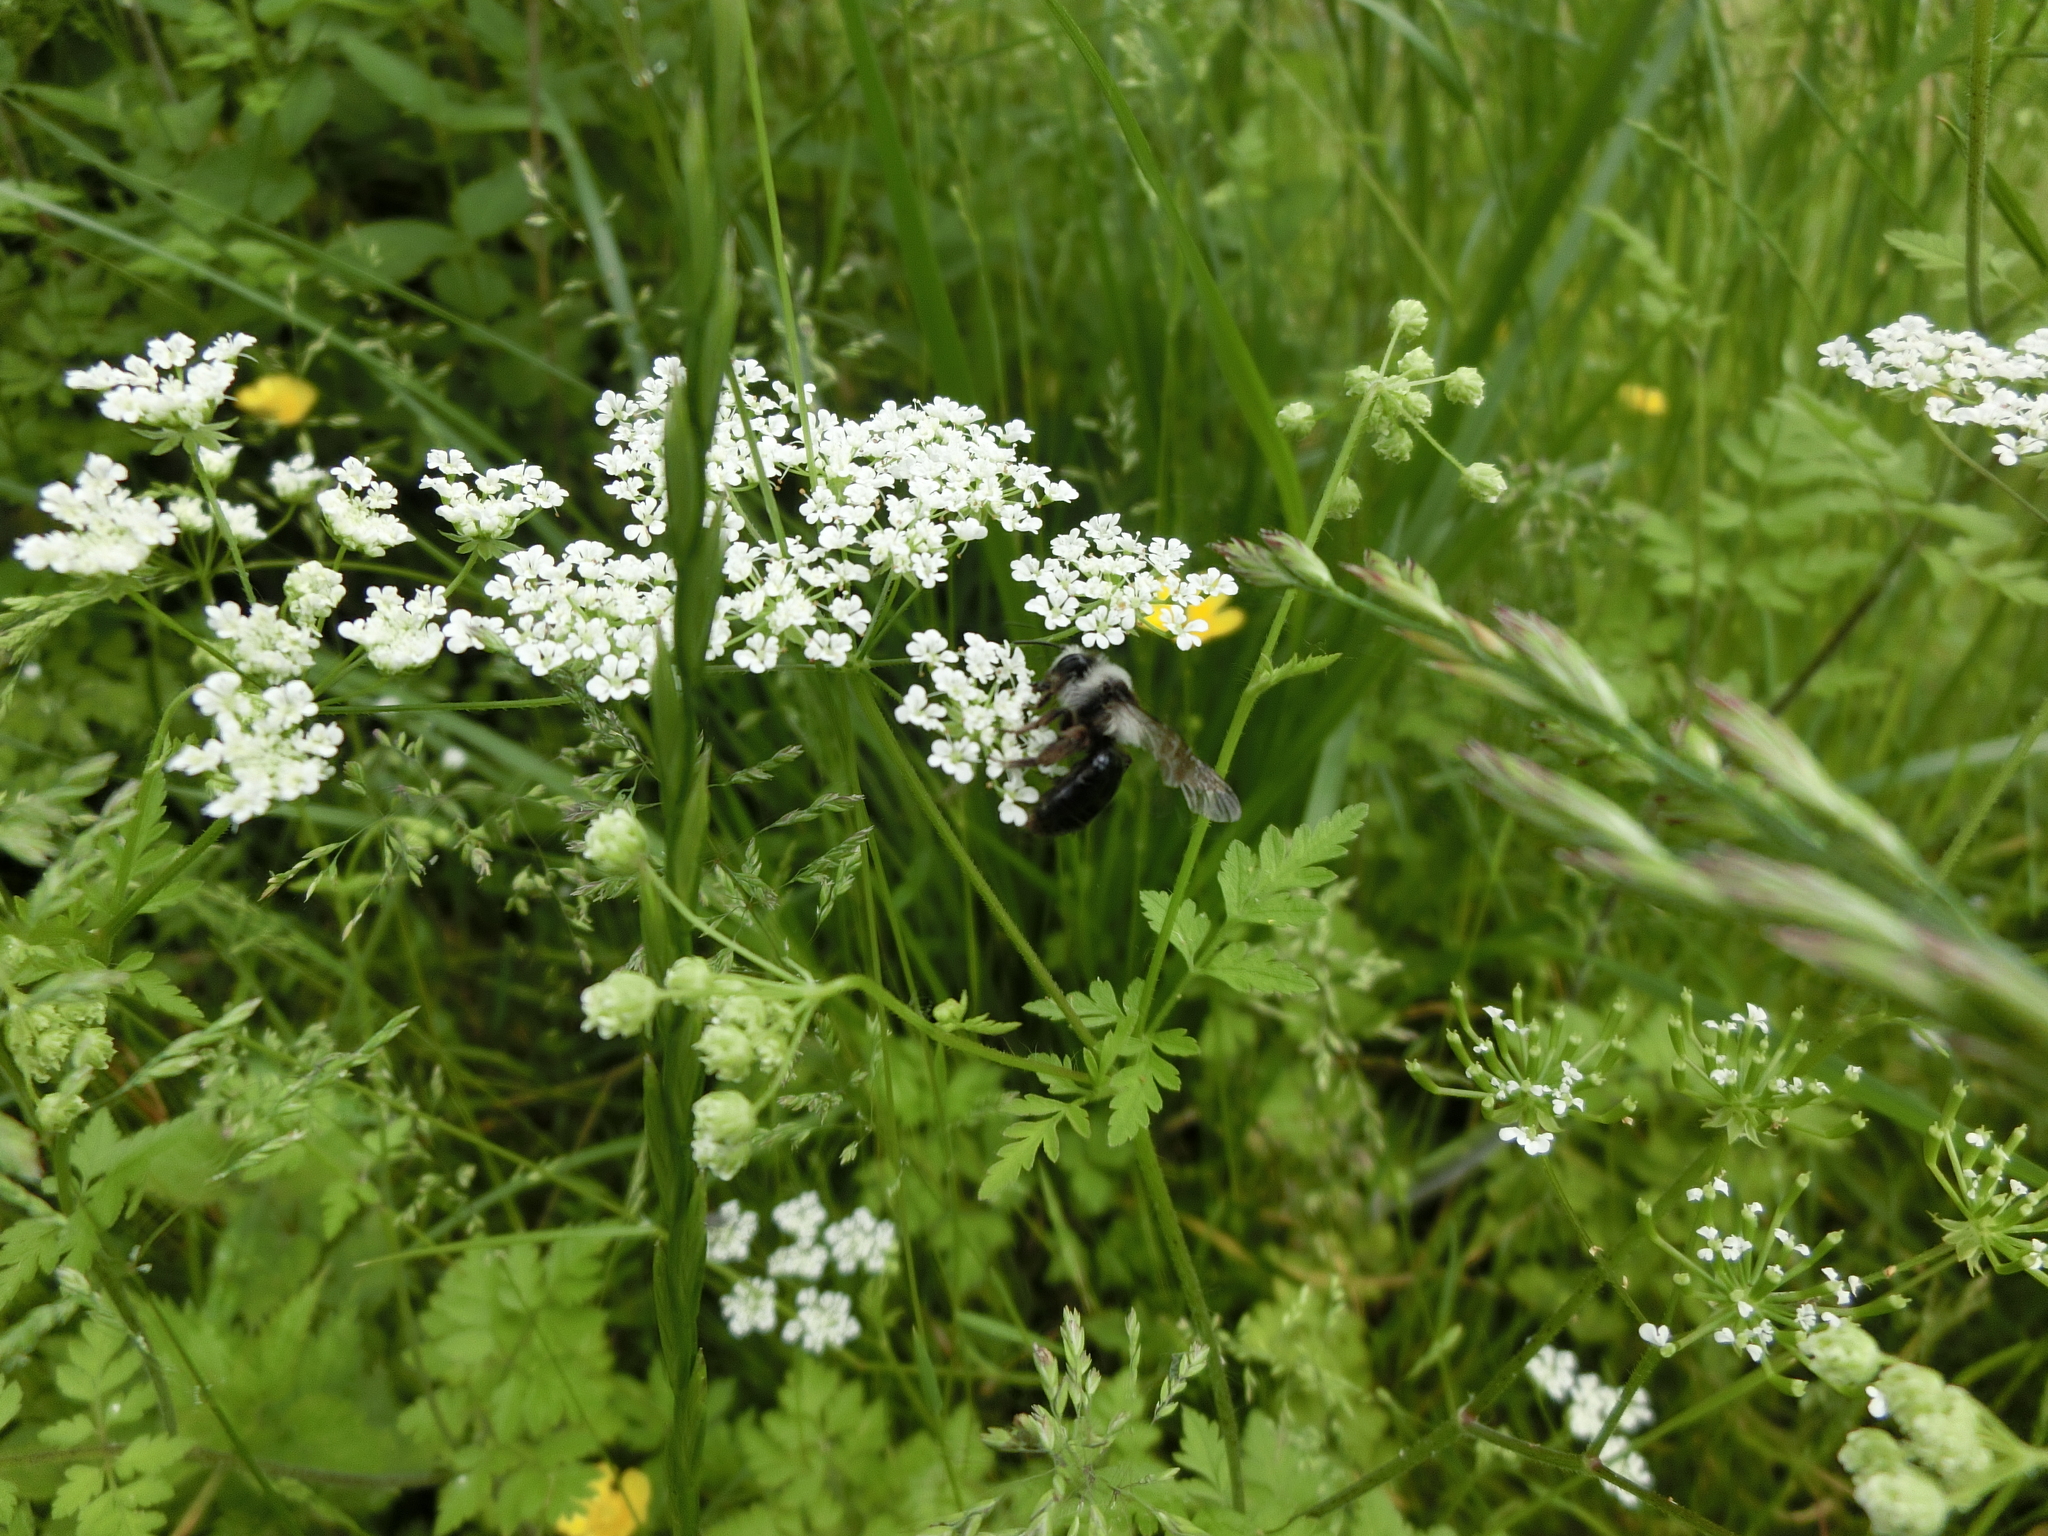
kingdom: Animalia
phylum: Arthropoda
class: Insecta
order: Hymenoptera
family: Andrenidae
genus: Andrena
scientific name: Andrena cineraria
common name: Ashy mining bee
